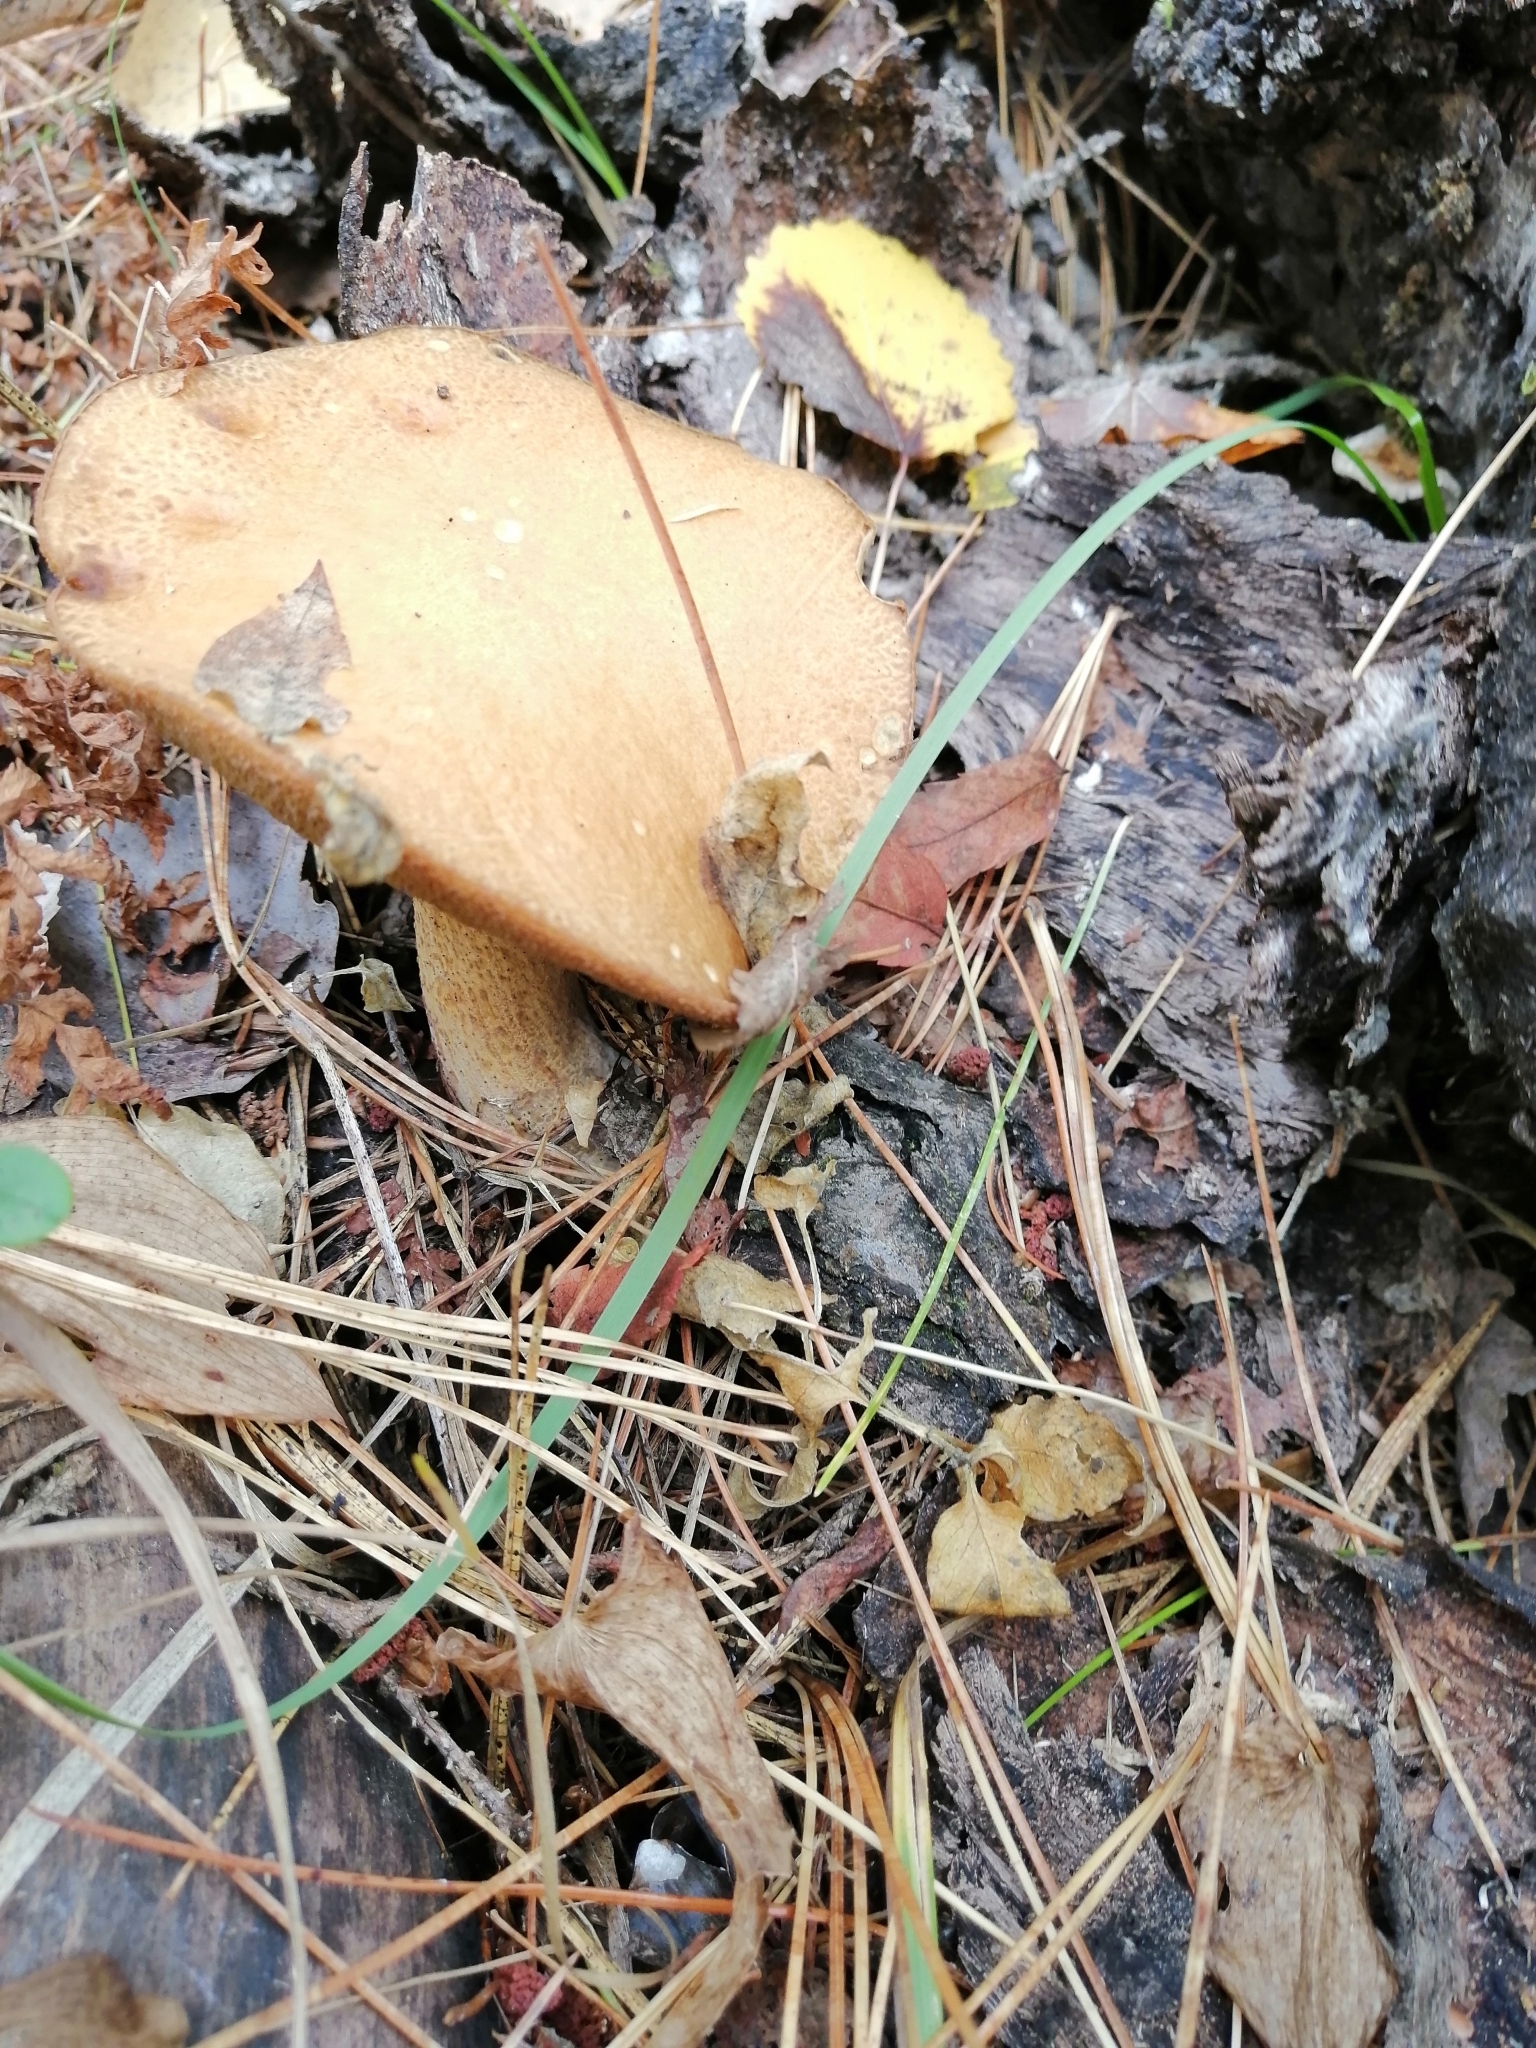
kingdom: Fungi
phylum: Basidiomycota
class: Agaricomycetes
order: Boletales
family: Suillaceae
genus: Suillus
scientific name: Suillus variegatus
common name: Velvet bolete
